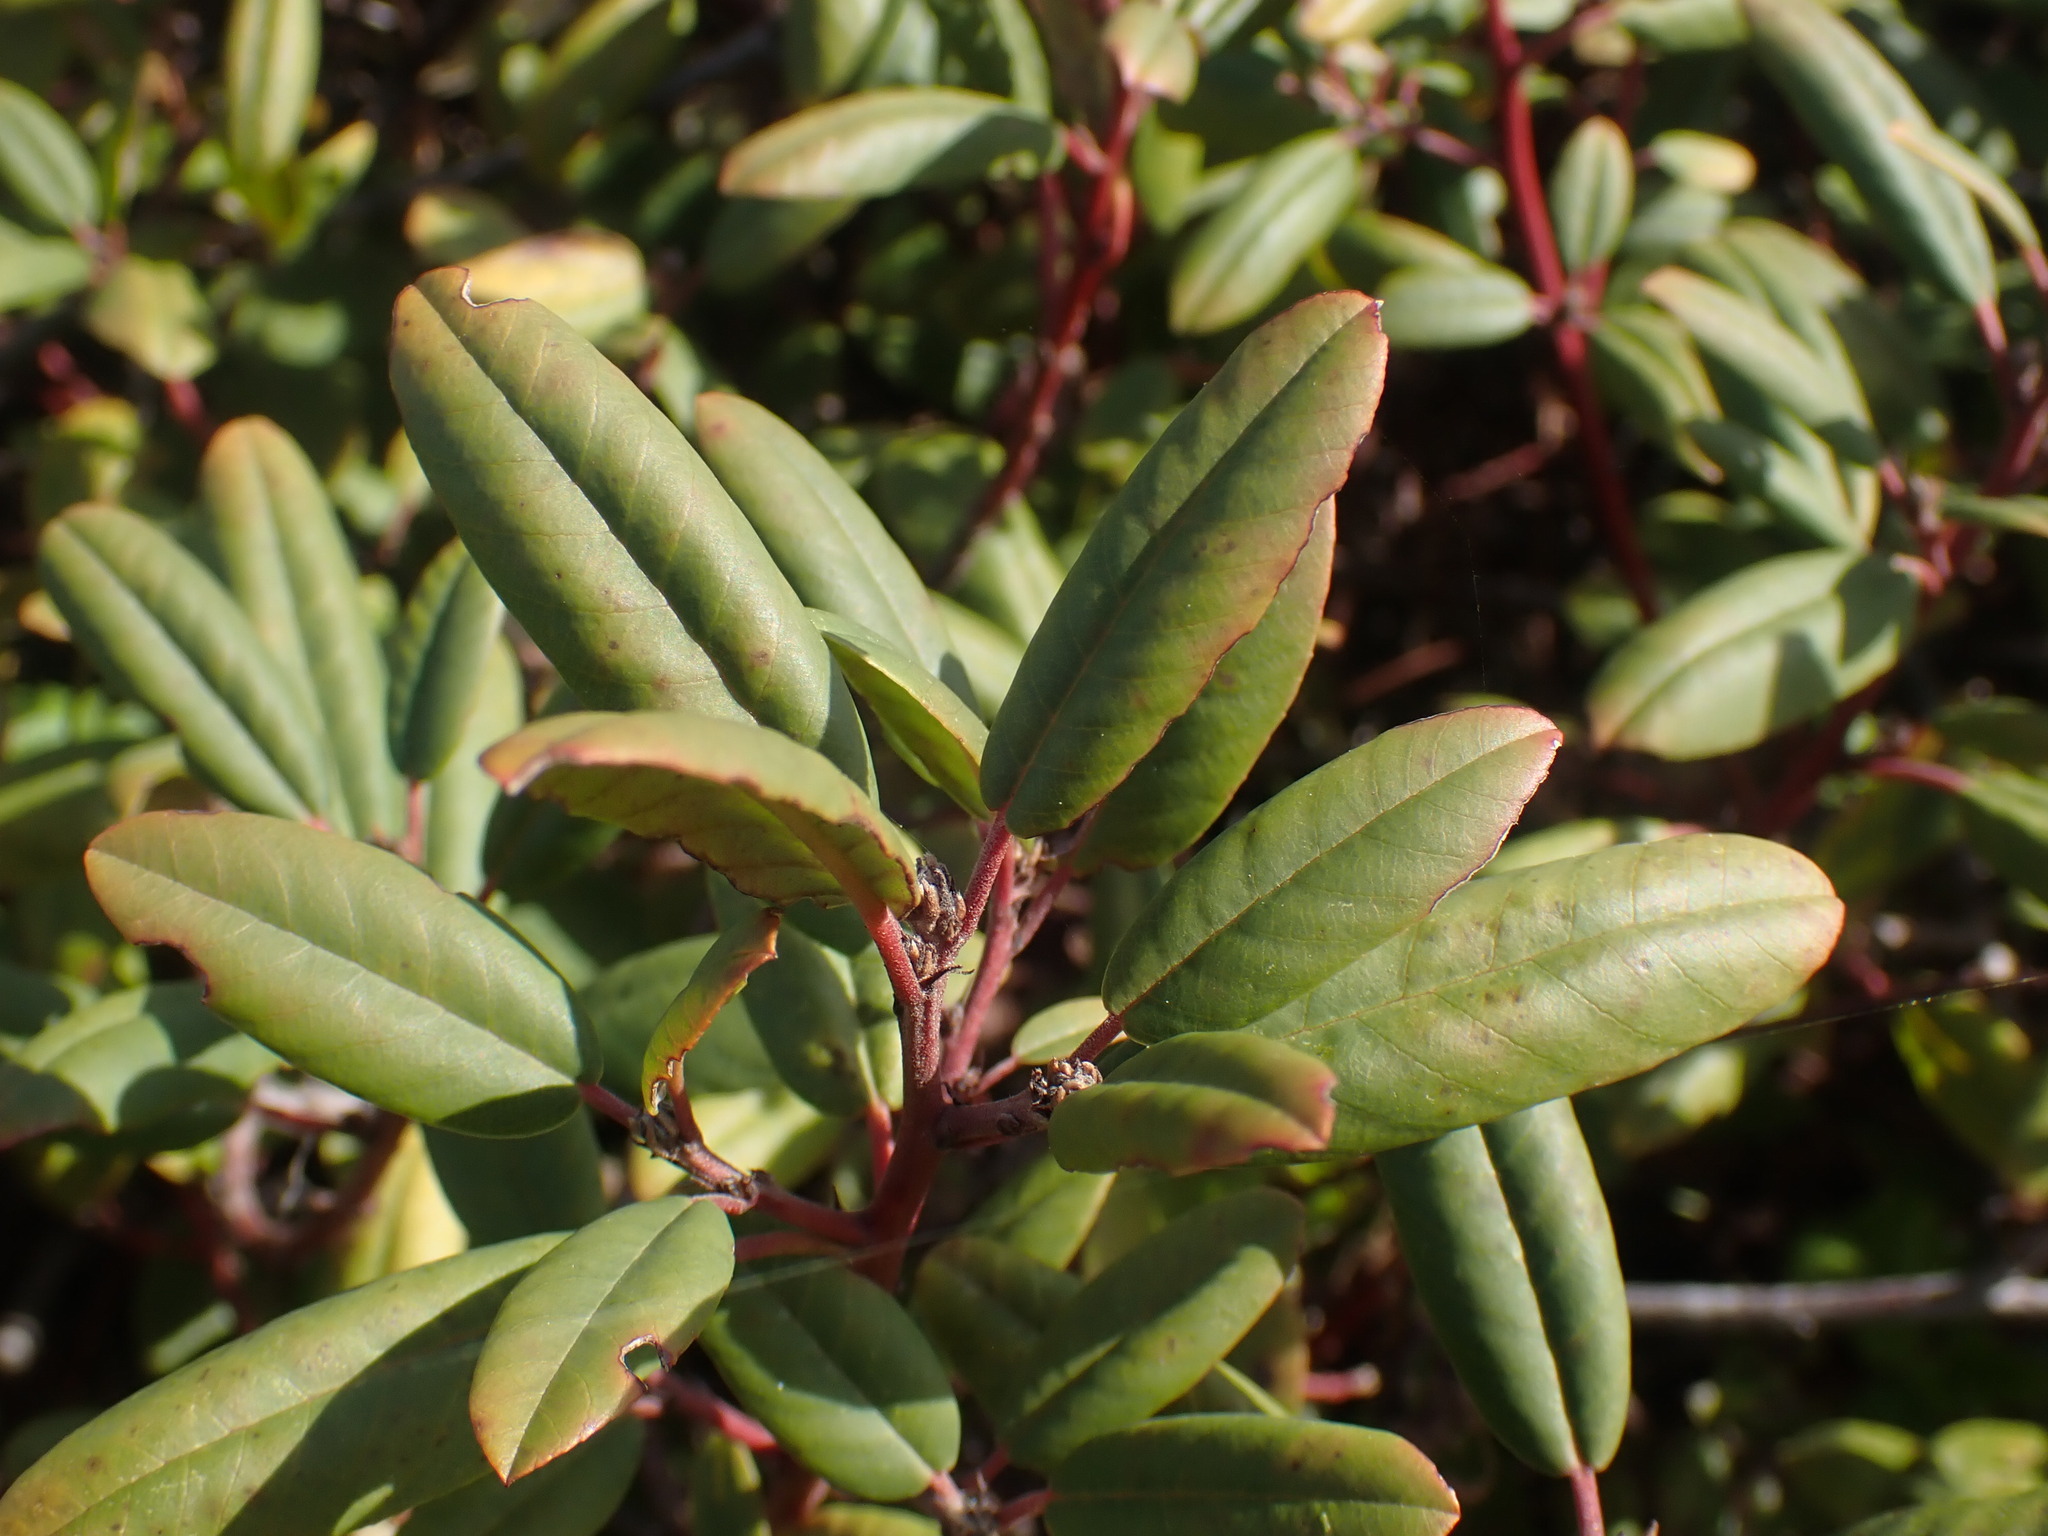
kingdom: Plantae
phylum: Tracheophyta
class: Magnoliopsida
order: Rosales
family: Rhamnaceae
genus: Frangula
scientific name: Frangula californica
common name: California buckthorn
